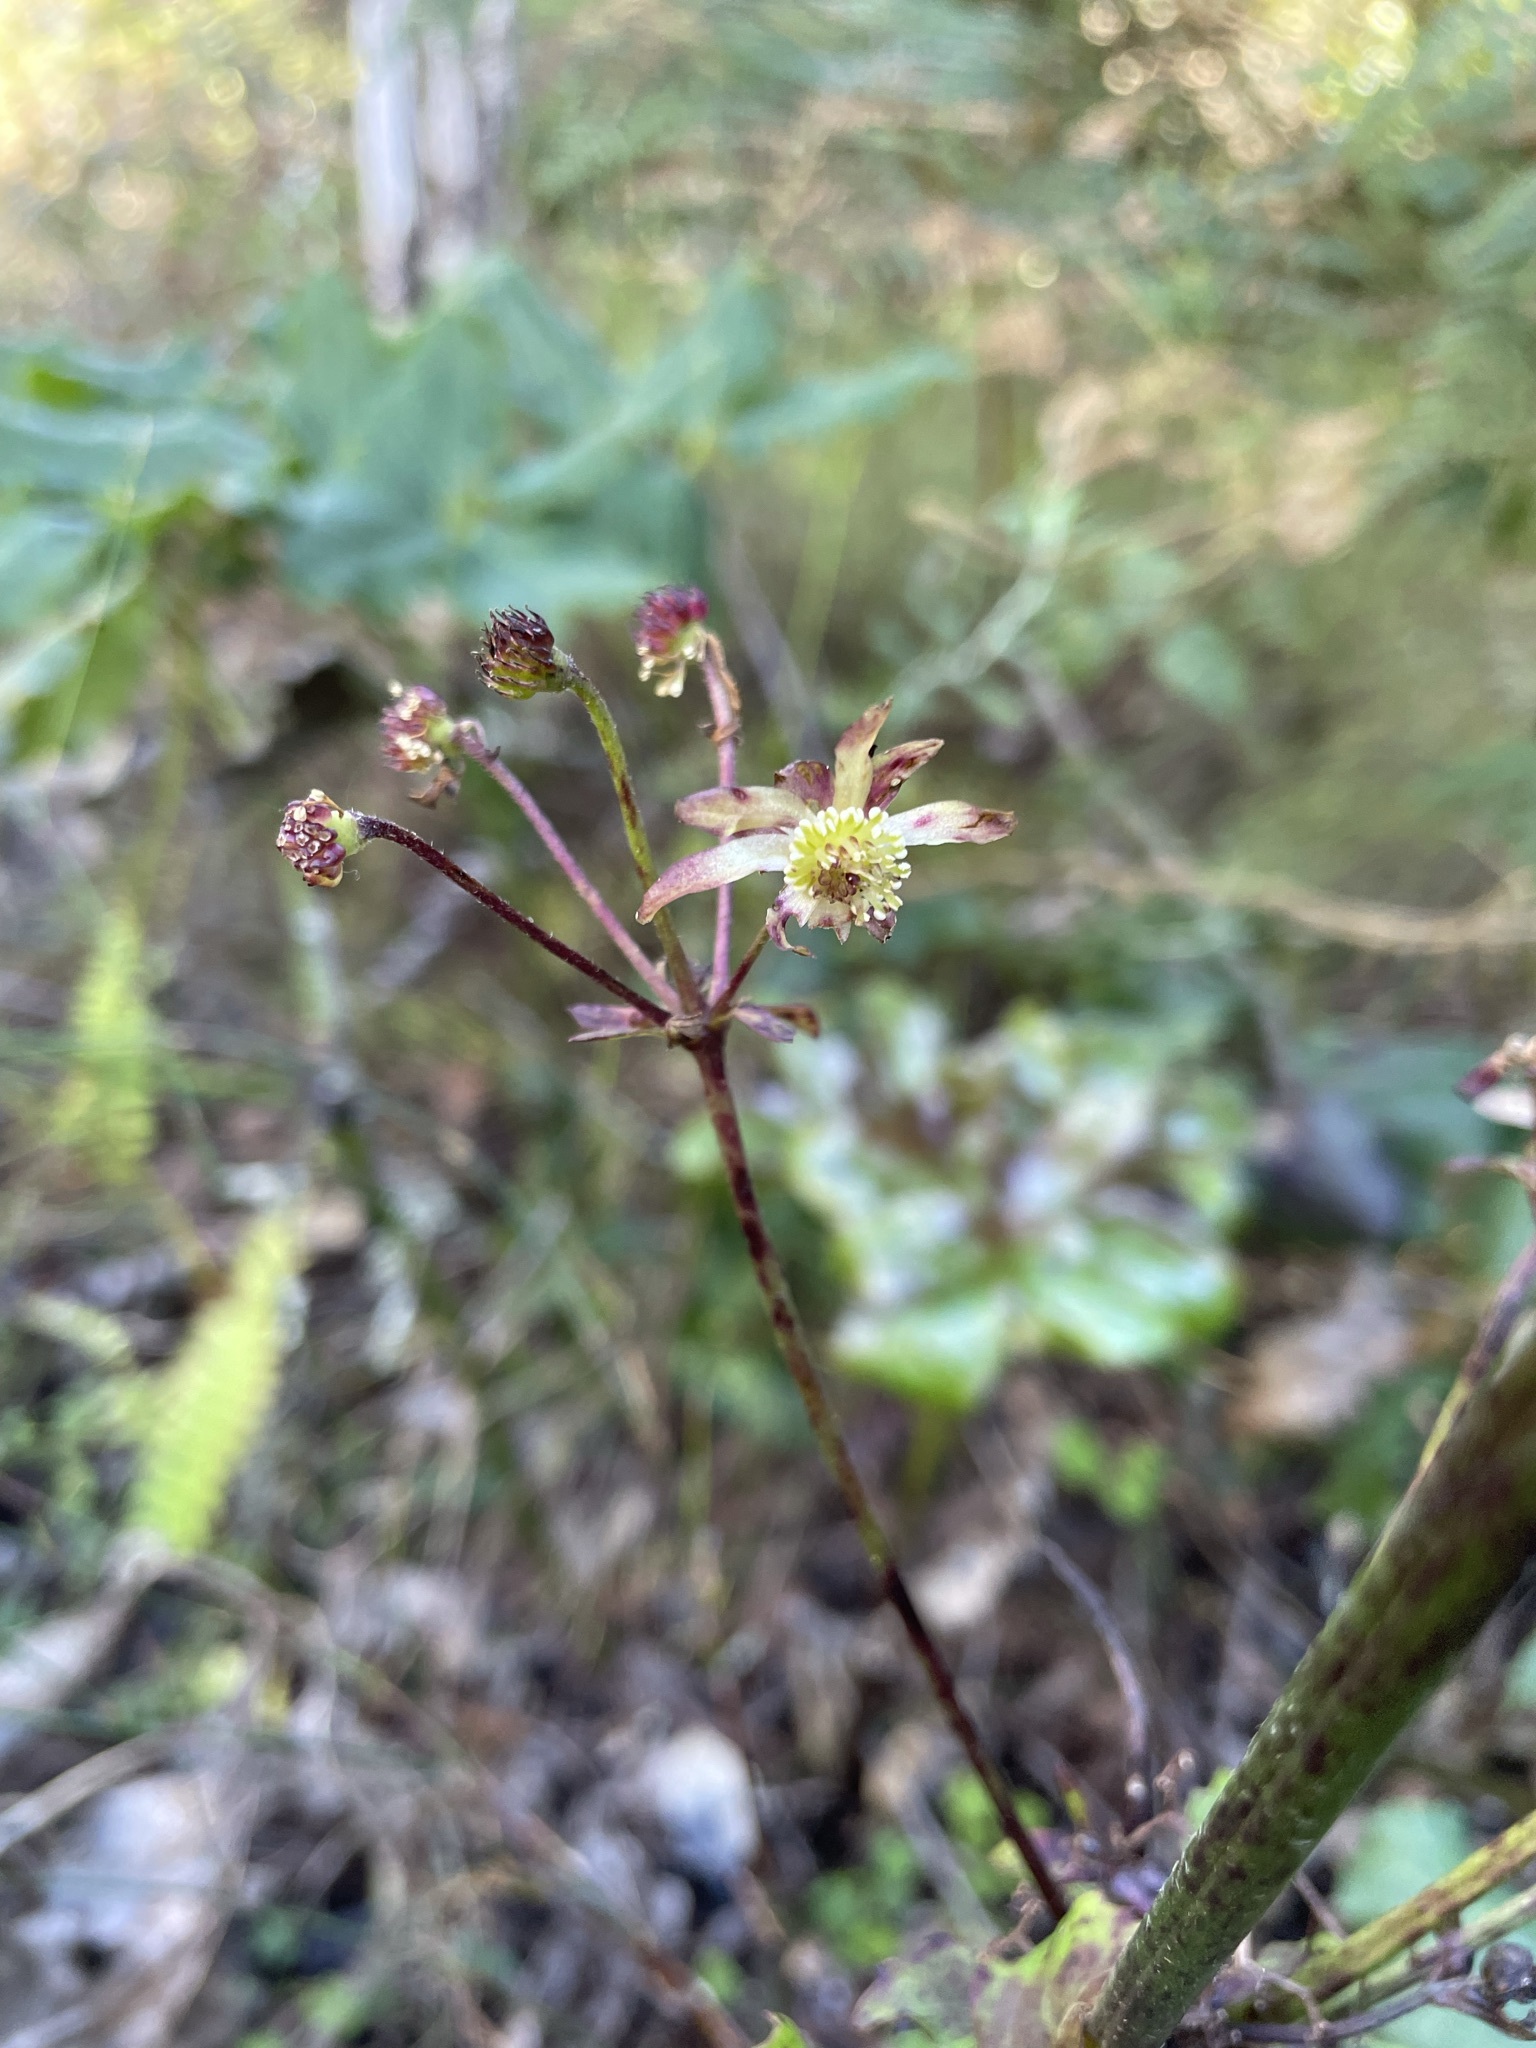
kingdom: Plantae
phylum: Tracheophyta
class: Magnoliopsida
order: Ranunculales
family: Ranunculaceae
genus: Knowltonia
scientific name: Knowltonia vesicatoria
